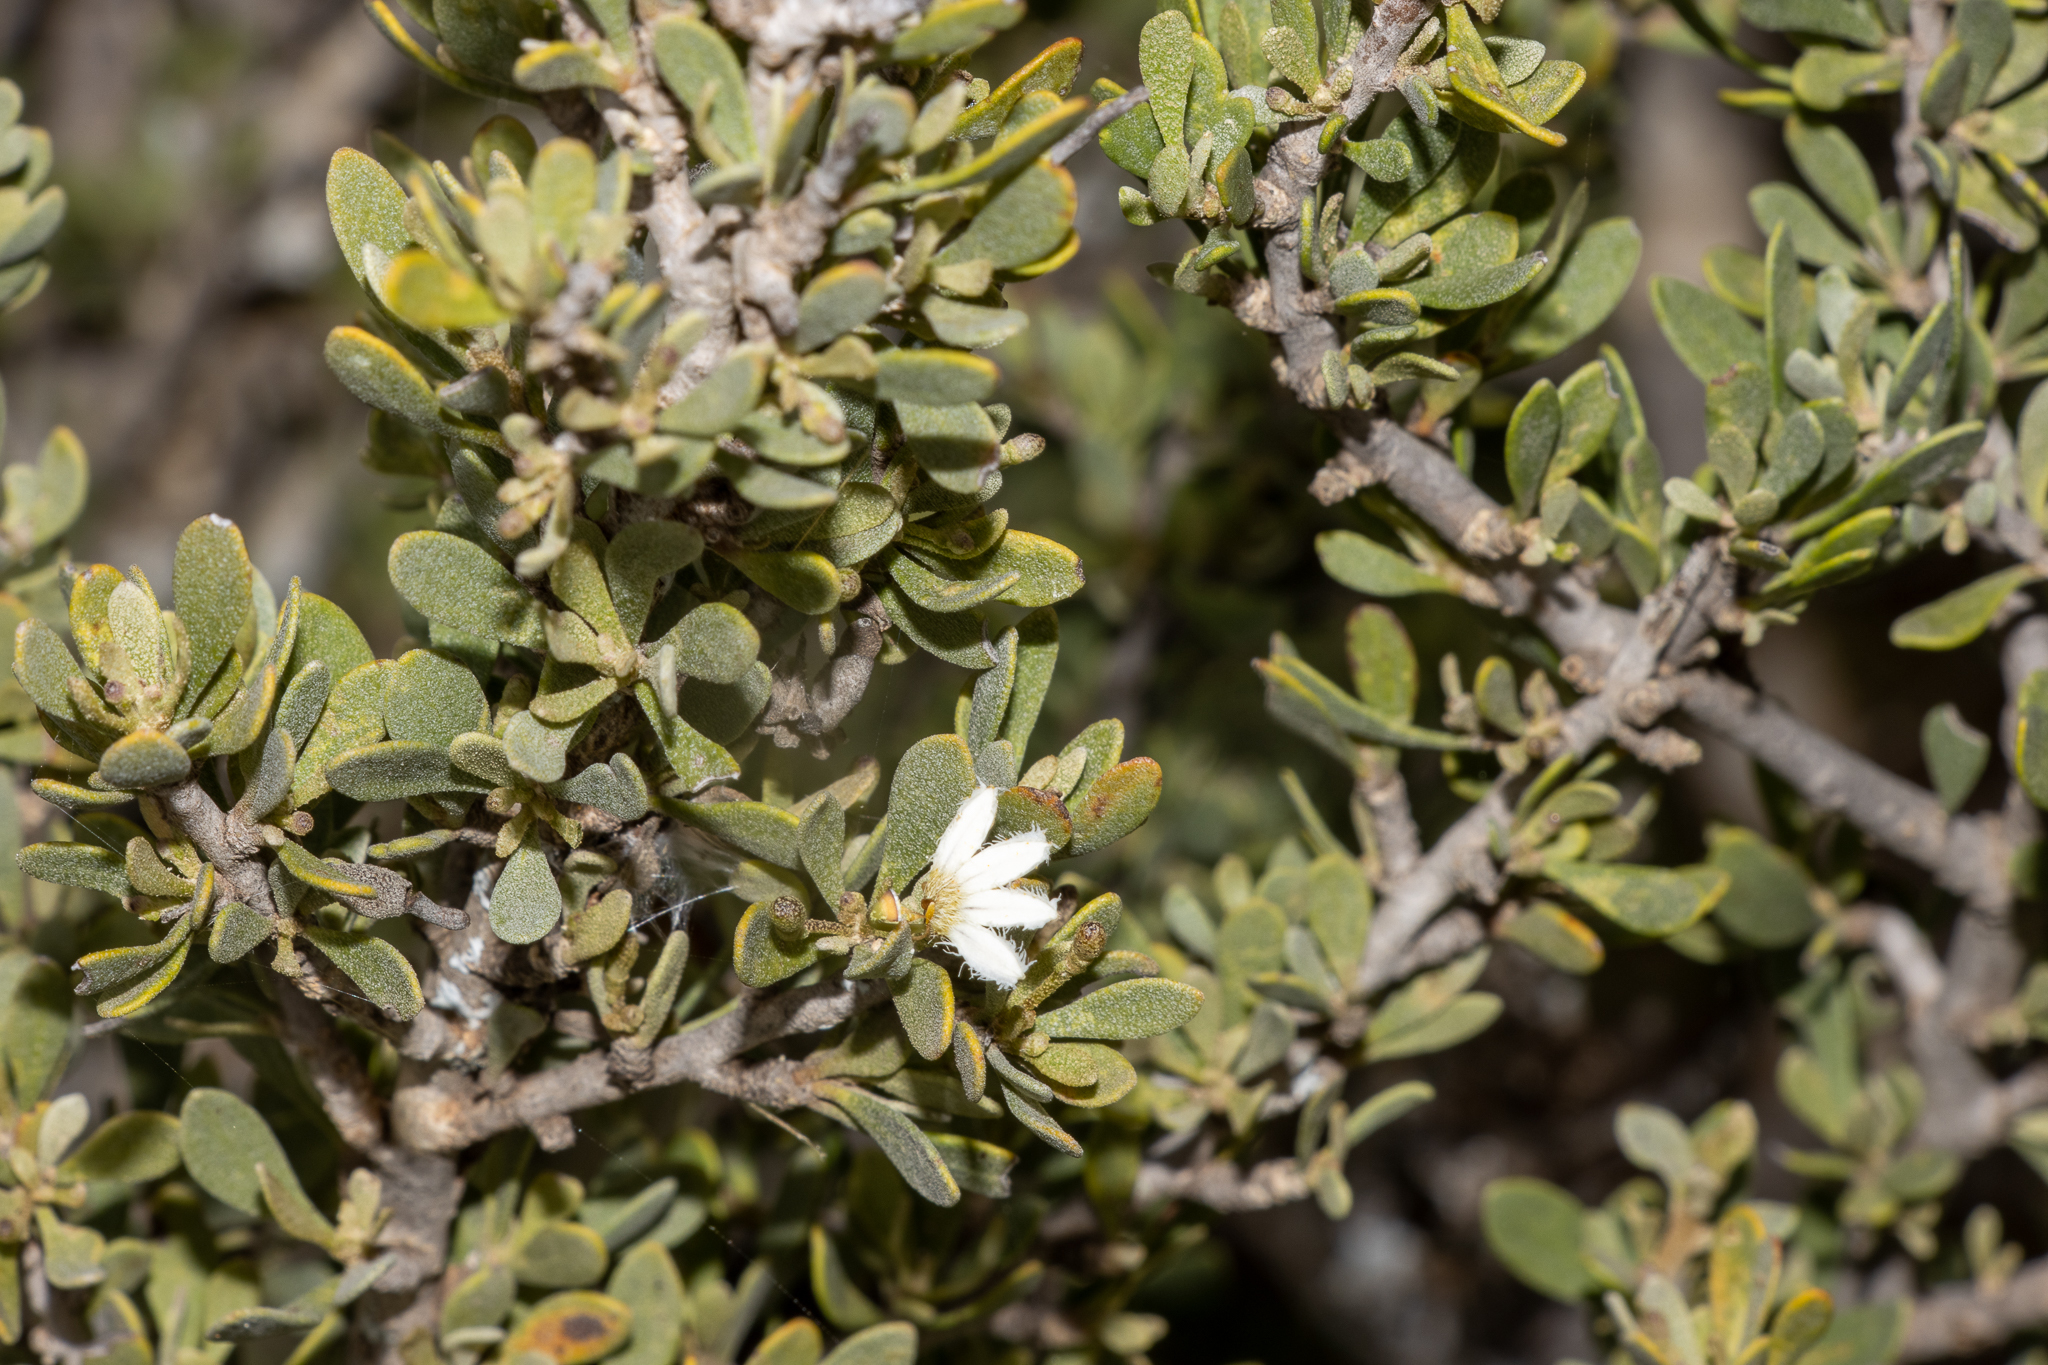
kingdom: Plantae
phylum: Tracheophyta
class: Magnoliopsida
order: Asterales
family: Goodeniaceae
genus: Scaevola
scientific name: Scaevola bursariifolia
